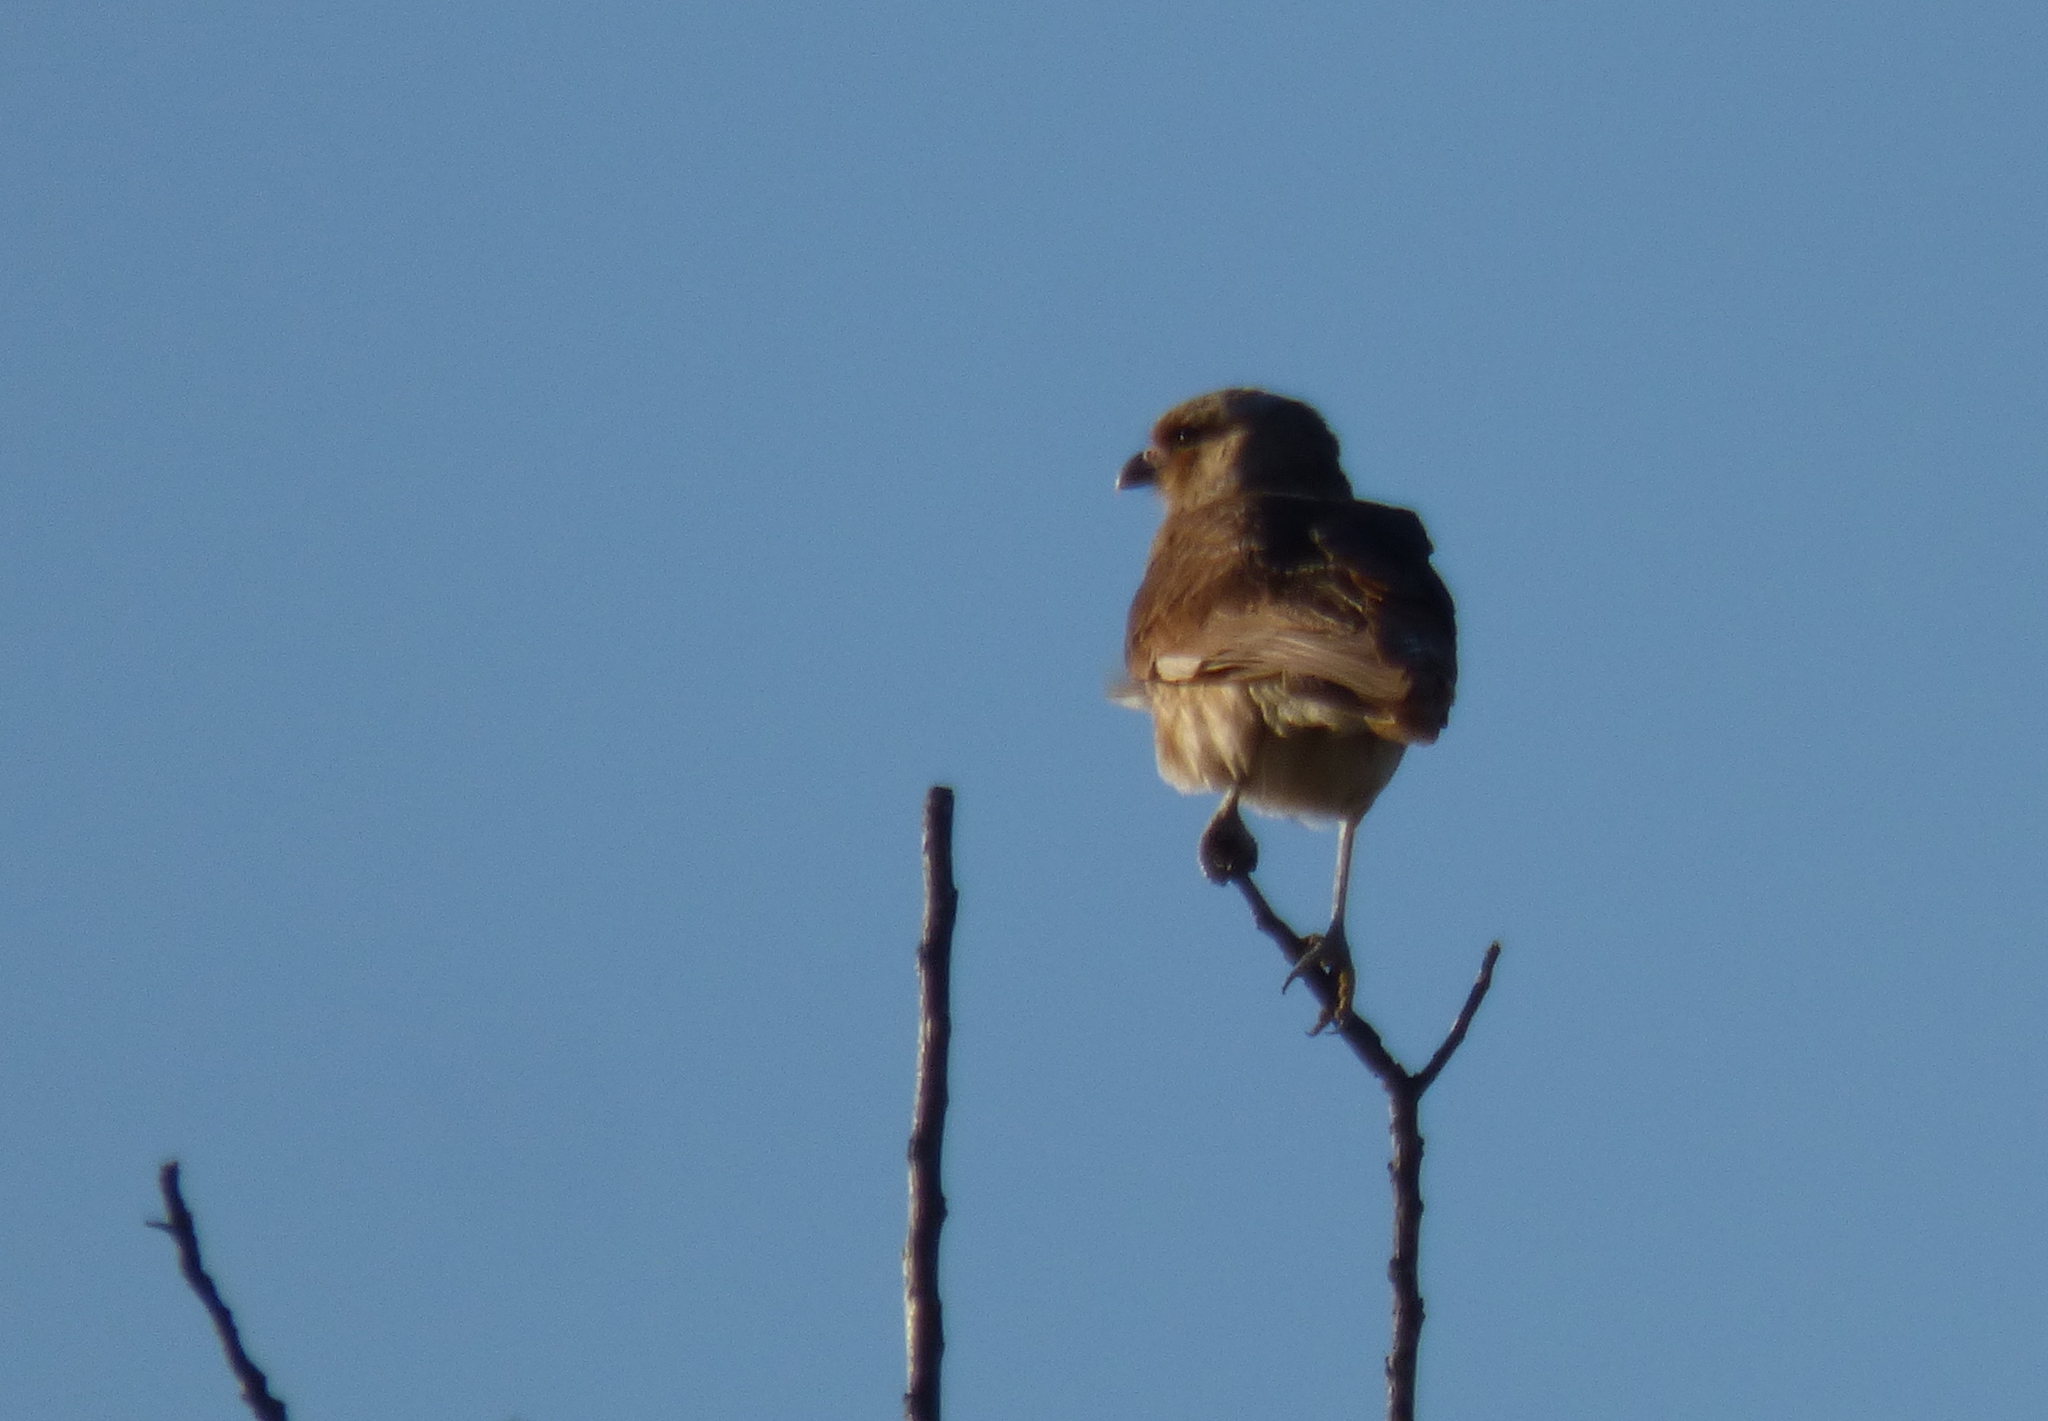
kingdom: Animalia
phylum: Chordata
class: Aves
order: Falconiformes
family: Falconidae
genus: Daptrius
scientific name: Daptrius
